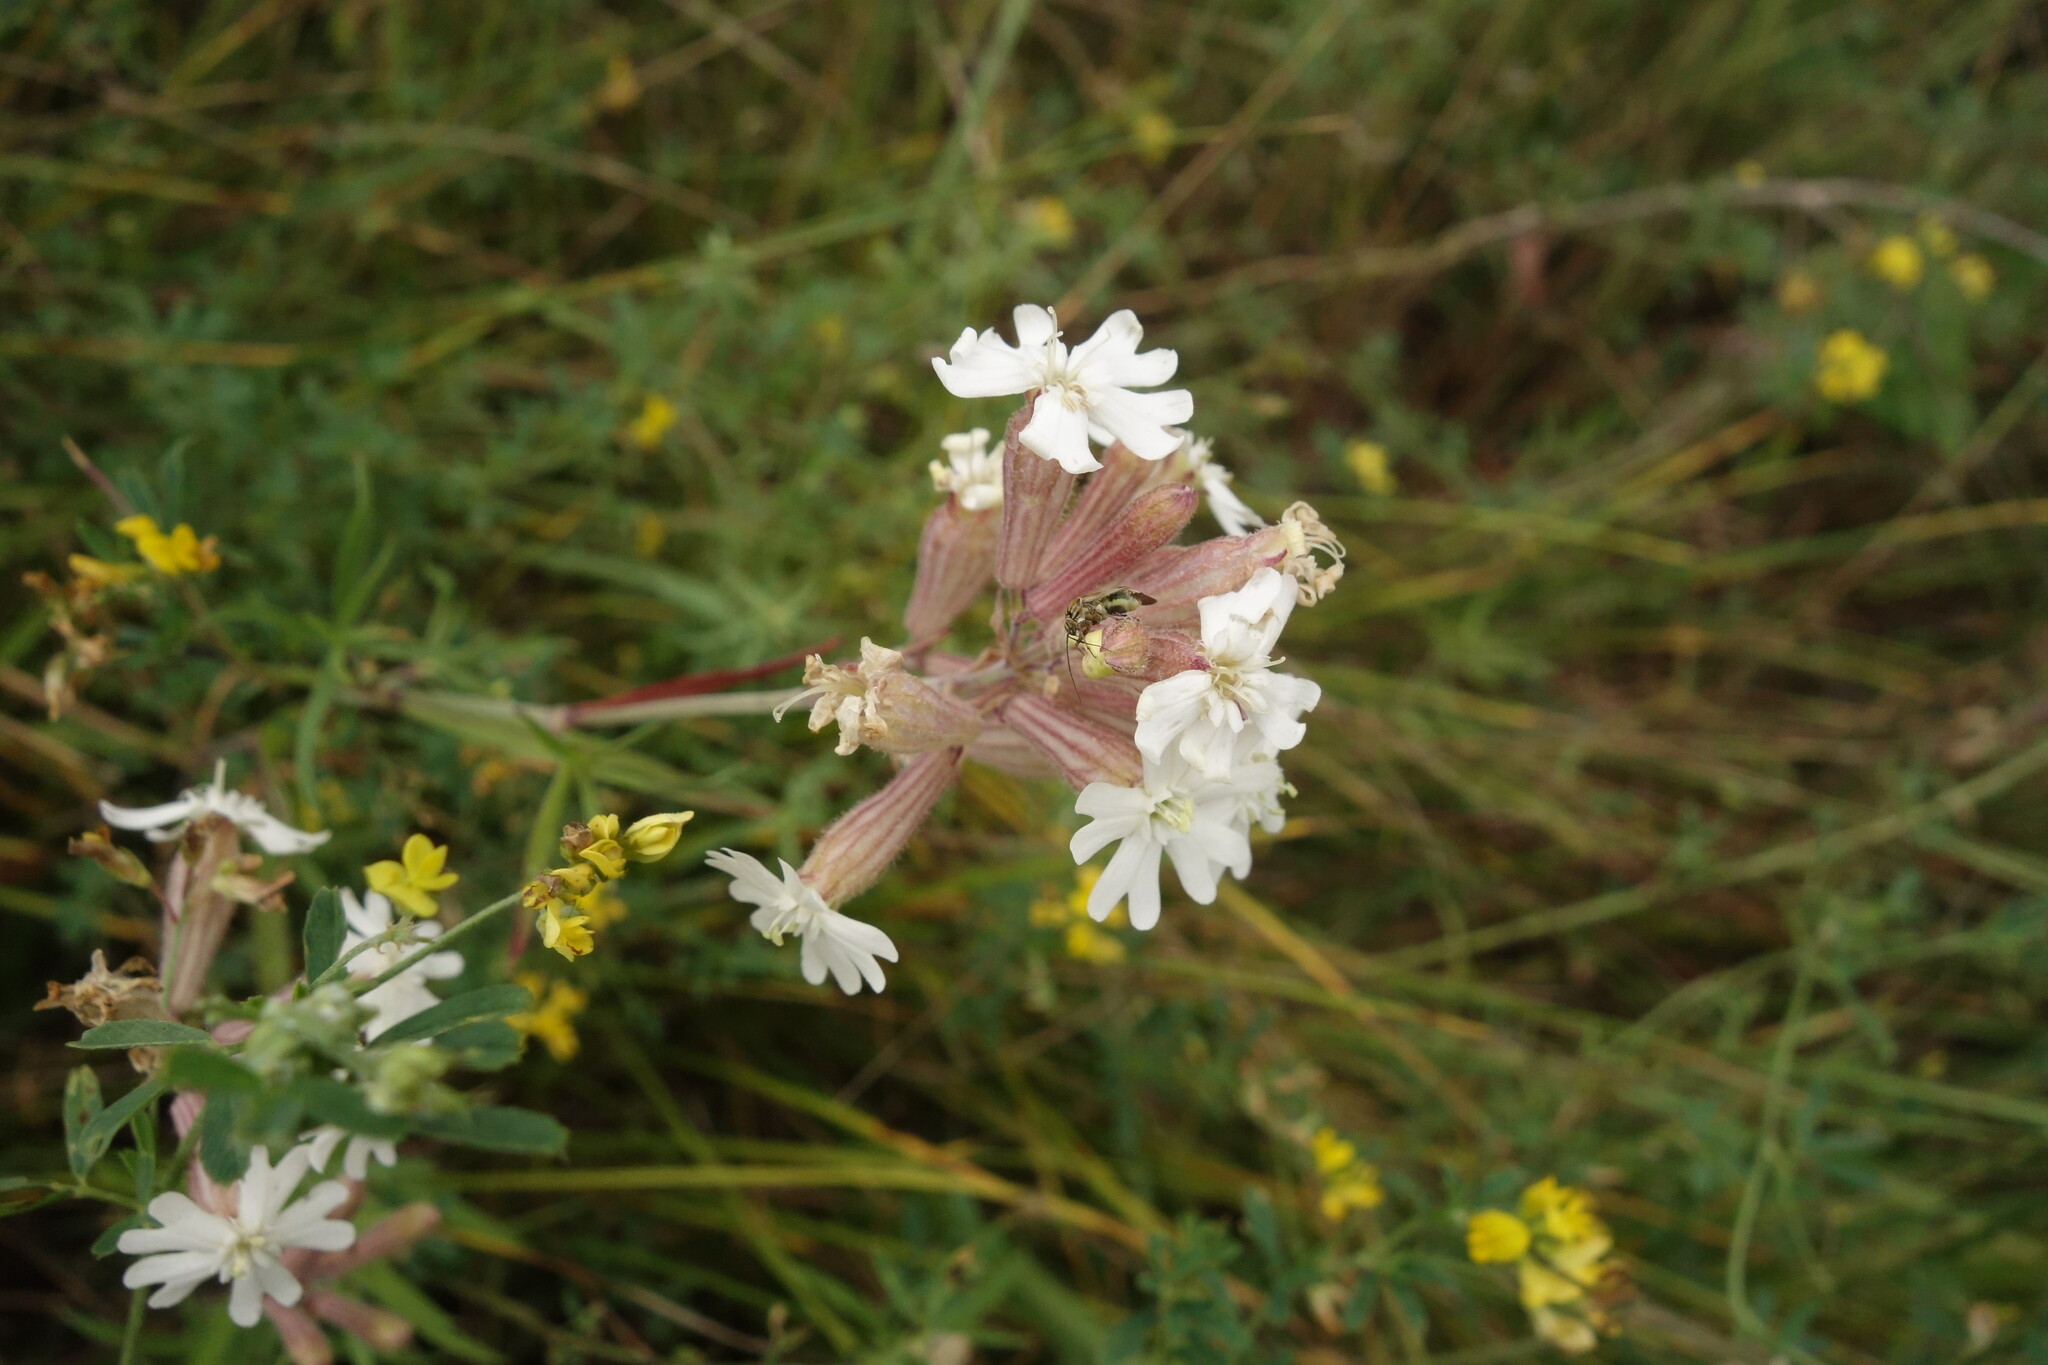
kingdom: Plantae
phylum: Tracheophyta
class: Magnoliopsida
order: Caryophyllales
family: Caryophyllaceae
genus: Silene
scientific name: Silene amoena
